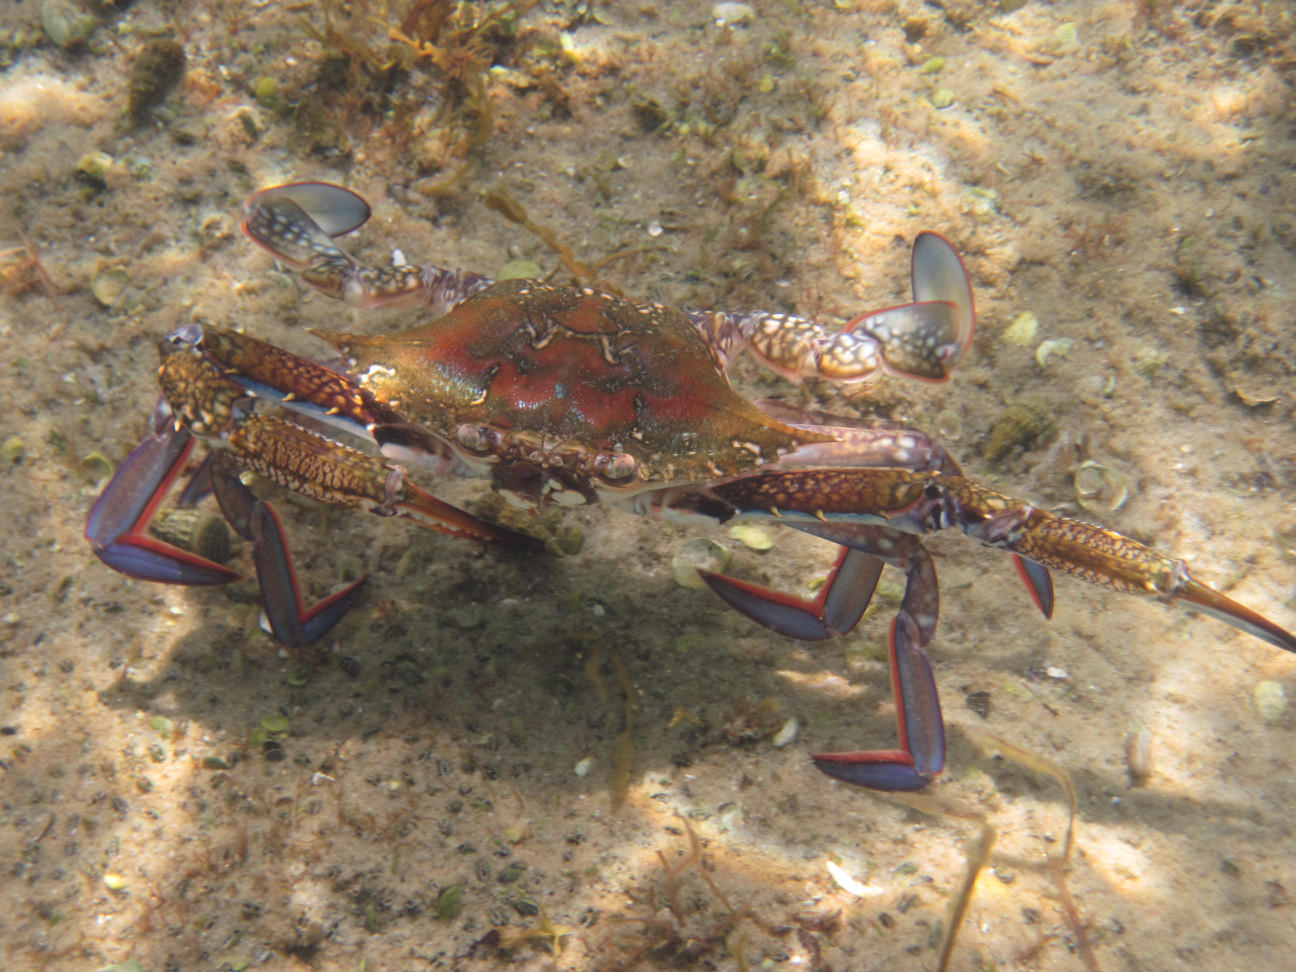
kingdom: Animalia
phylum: Arthropoda
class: Malacostraca
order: Decapoda
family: Portunidae
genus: Portunus
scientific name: Portunus segnis
